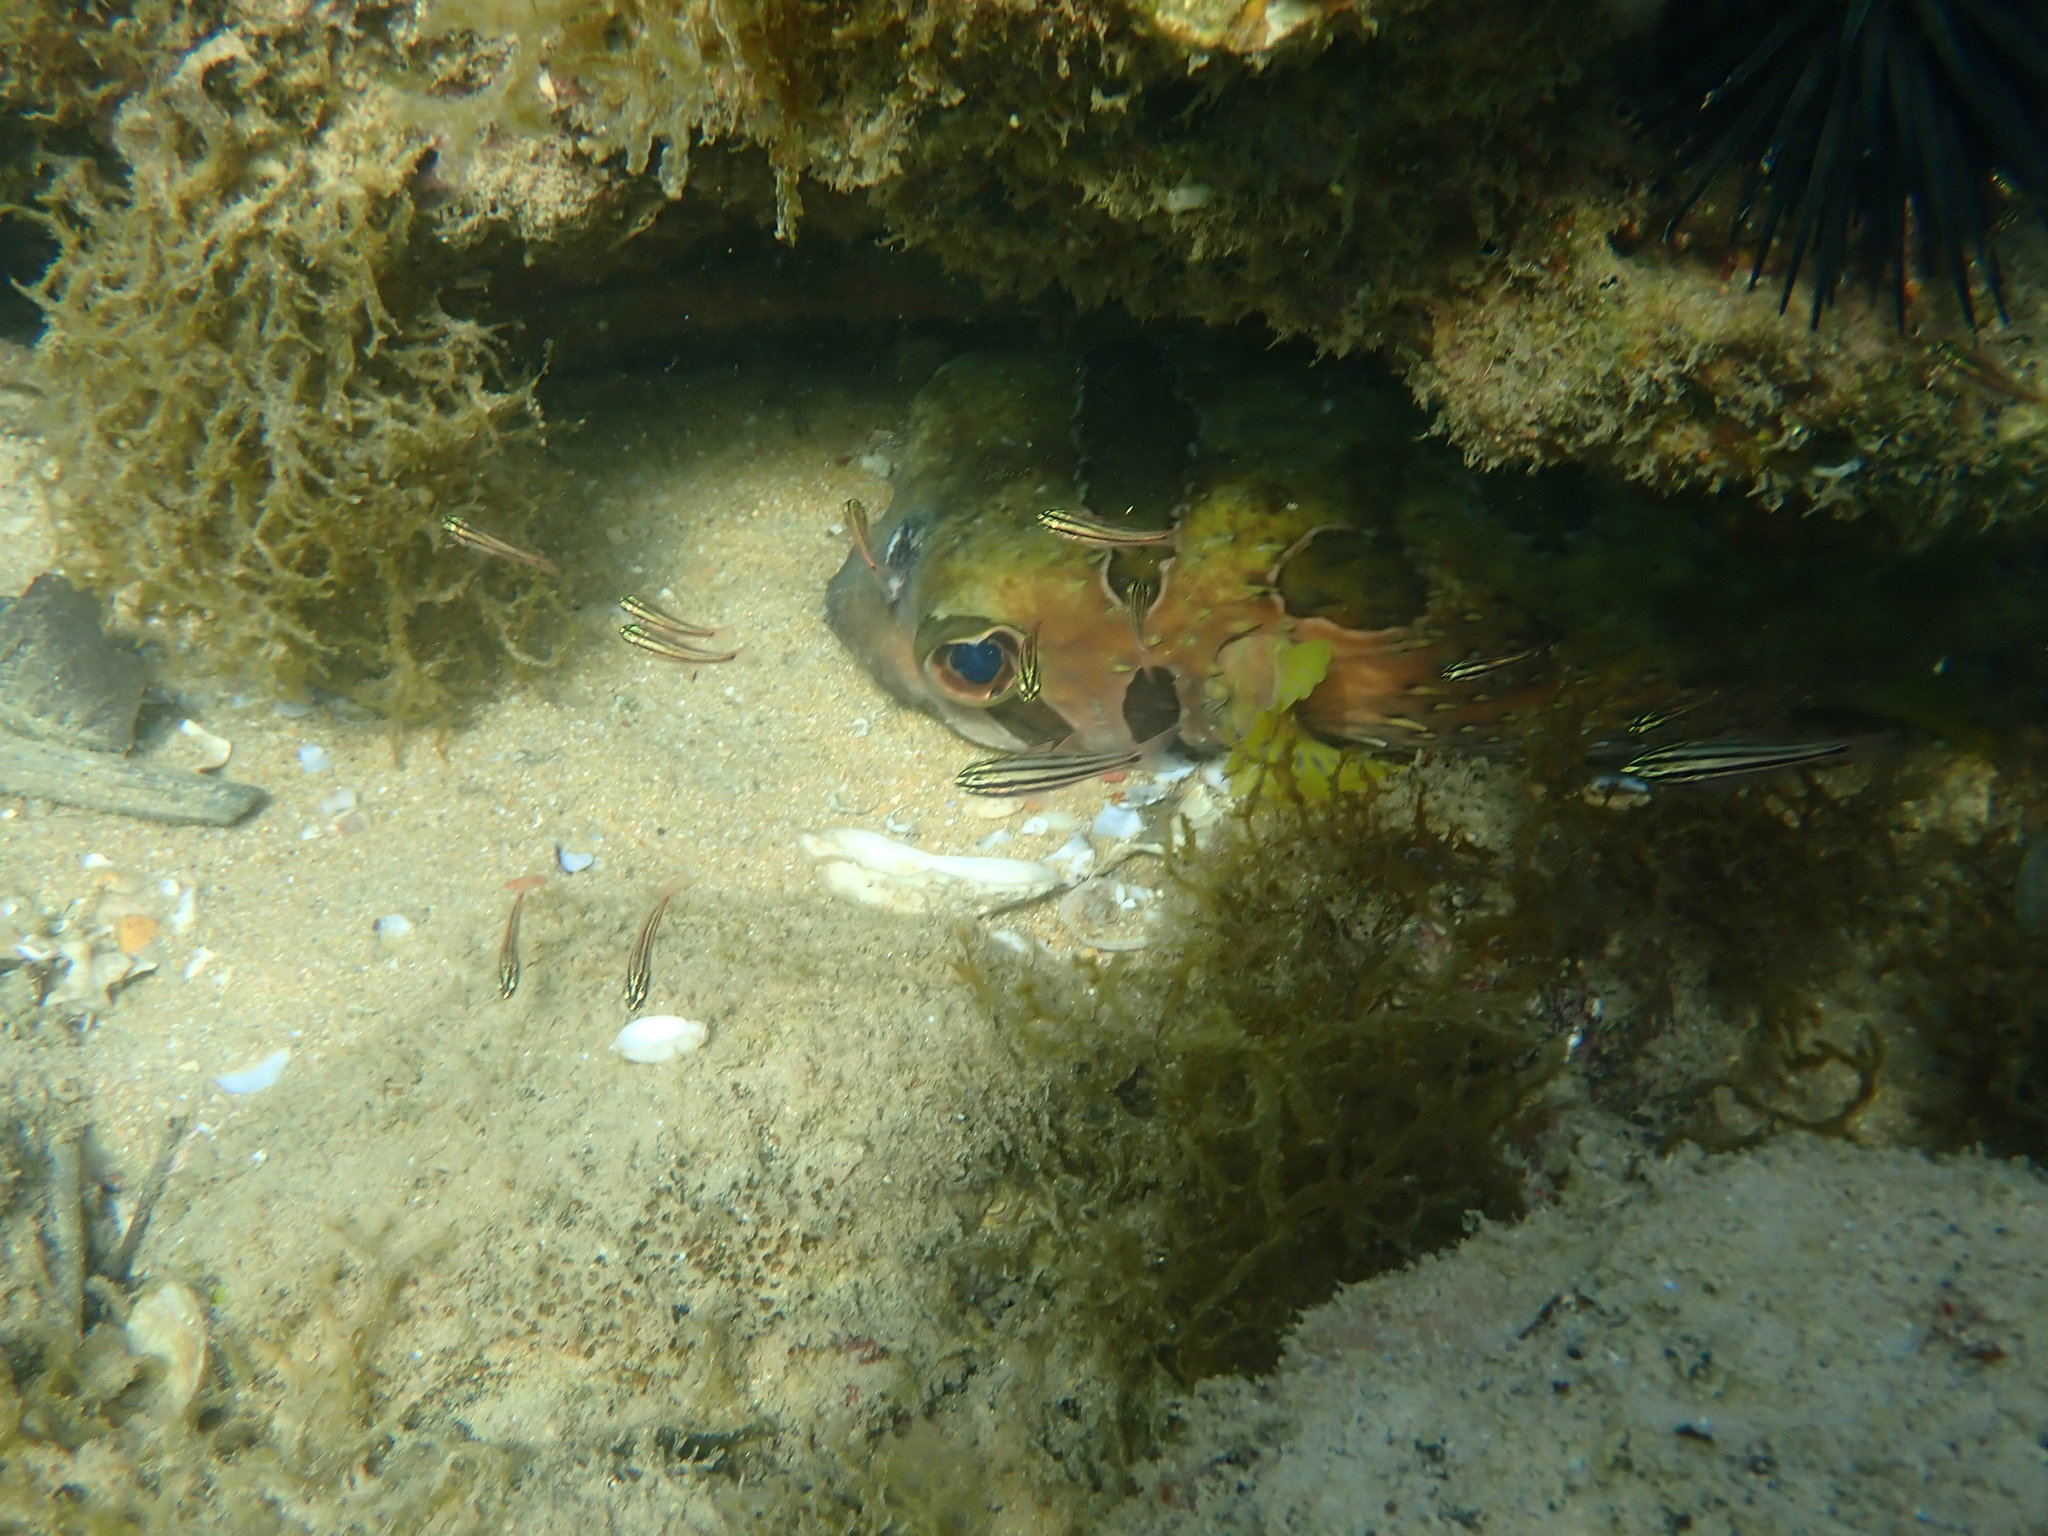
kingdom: Animalia
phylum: Chordata
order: Tetraodontiformes
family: Diodontidae
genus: Diodon
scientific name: Diodon liturosus
